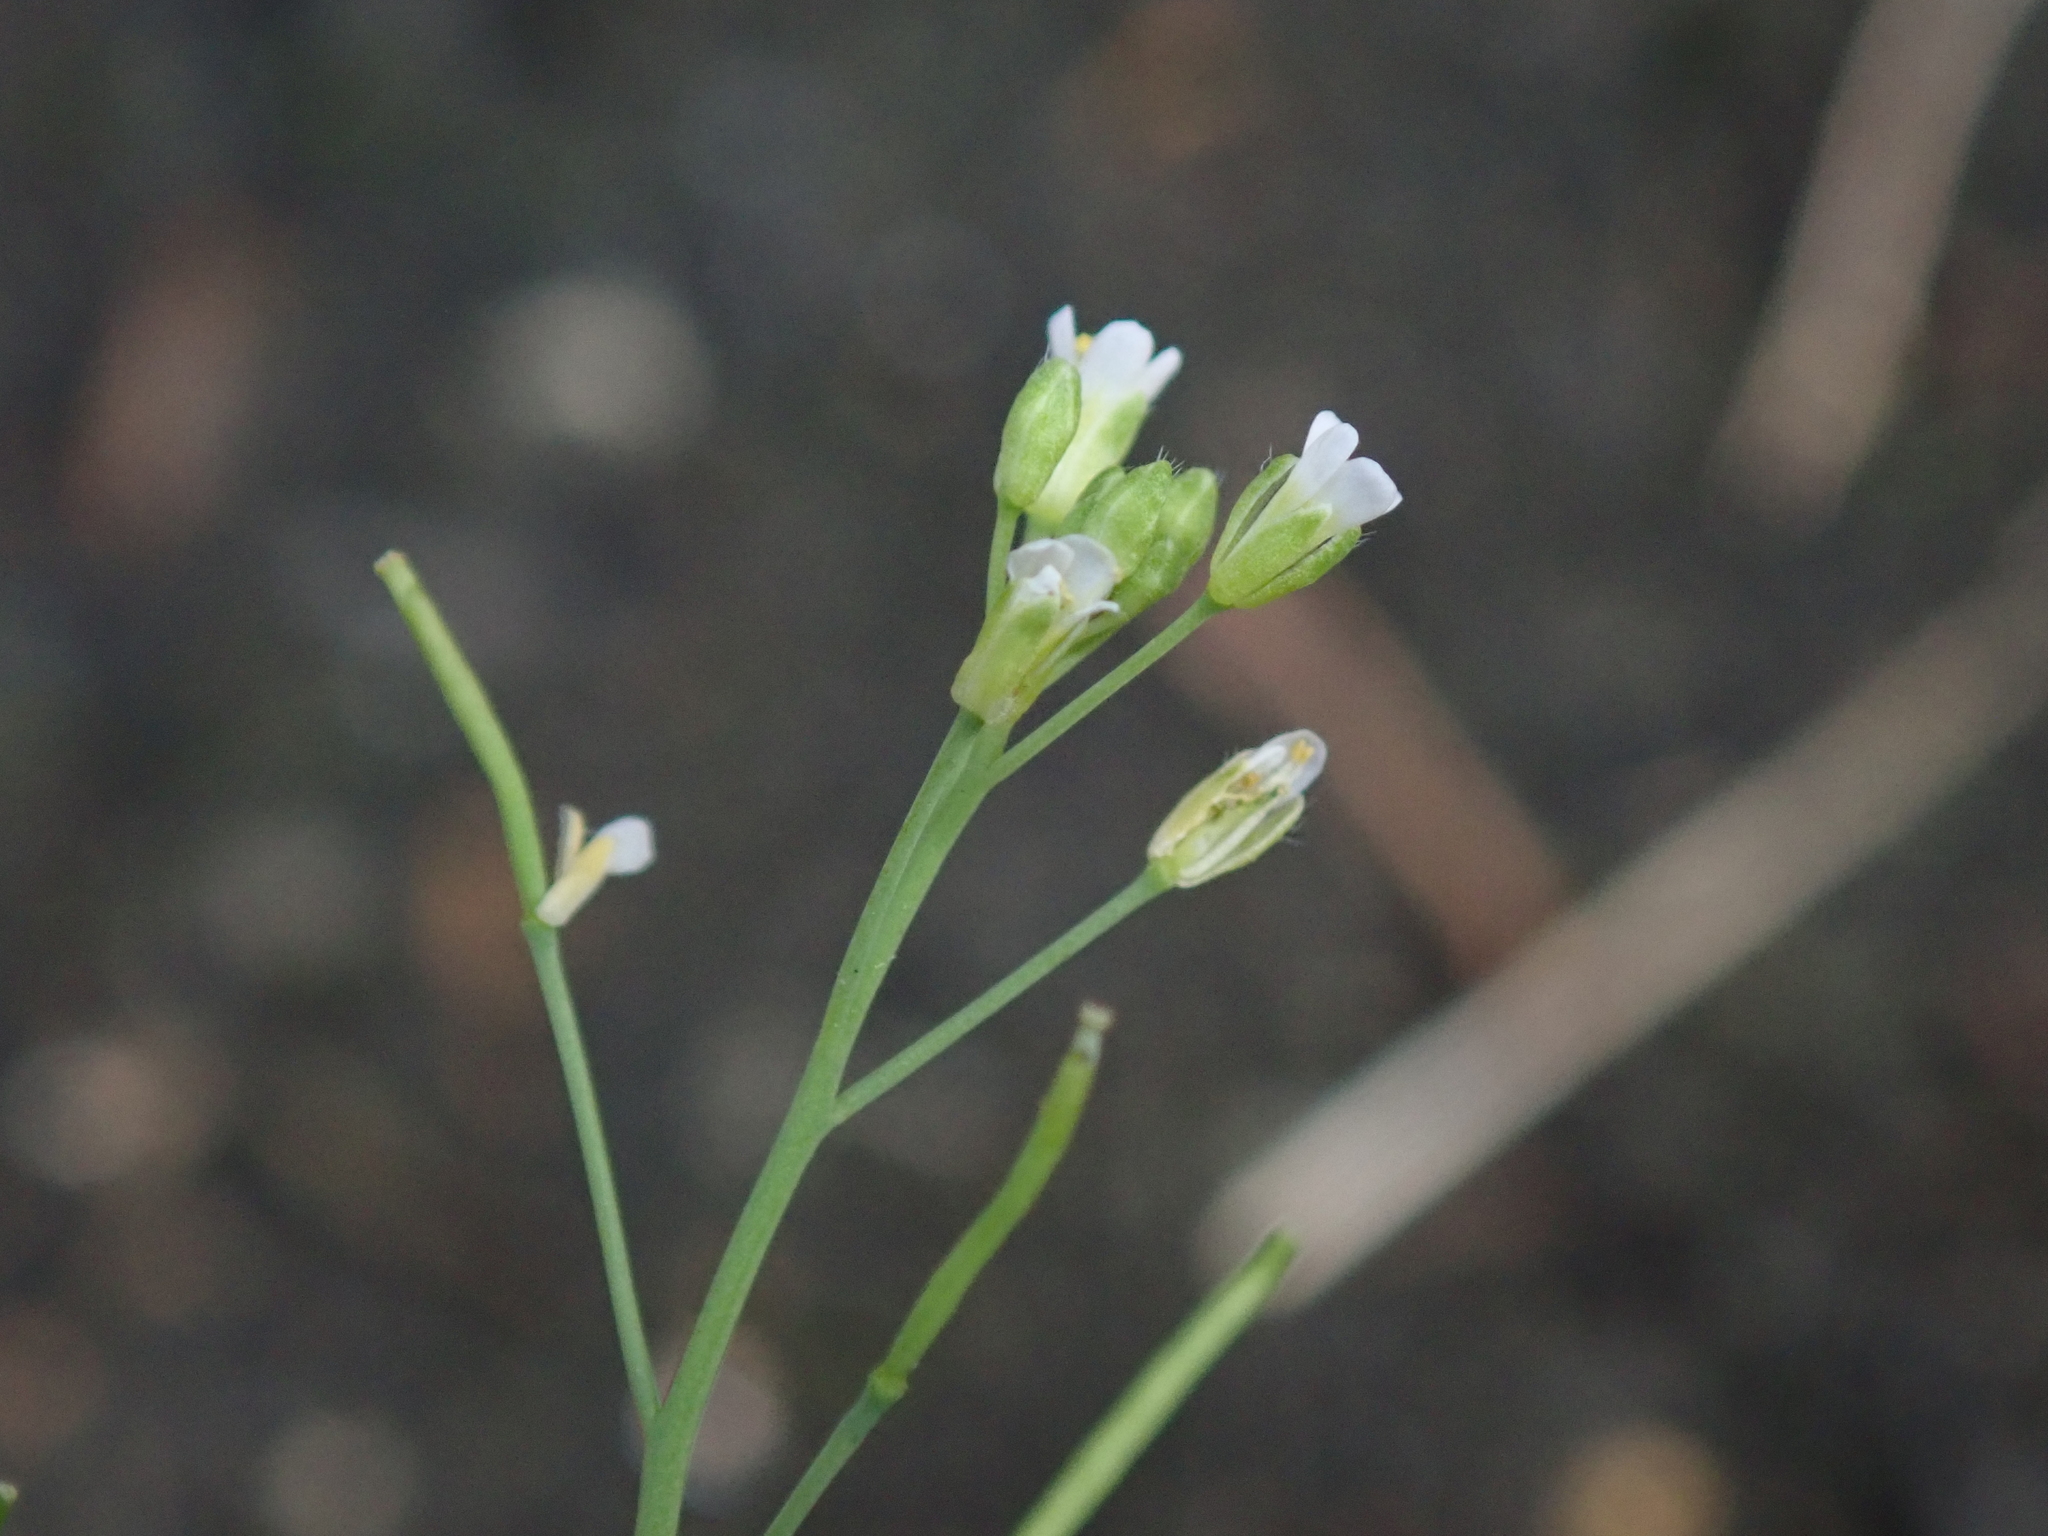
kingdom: Plantae
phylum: Tracheophyta
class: Magnoliopsida
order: Brassicales
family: Brassicaceae
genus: Arabidopsis
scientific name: Arabidopsis thaliana
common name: Thale cress
